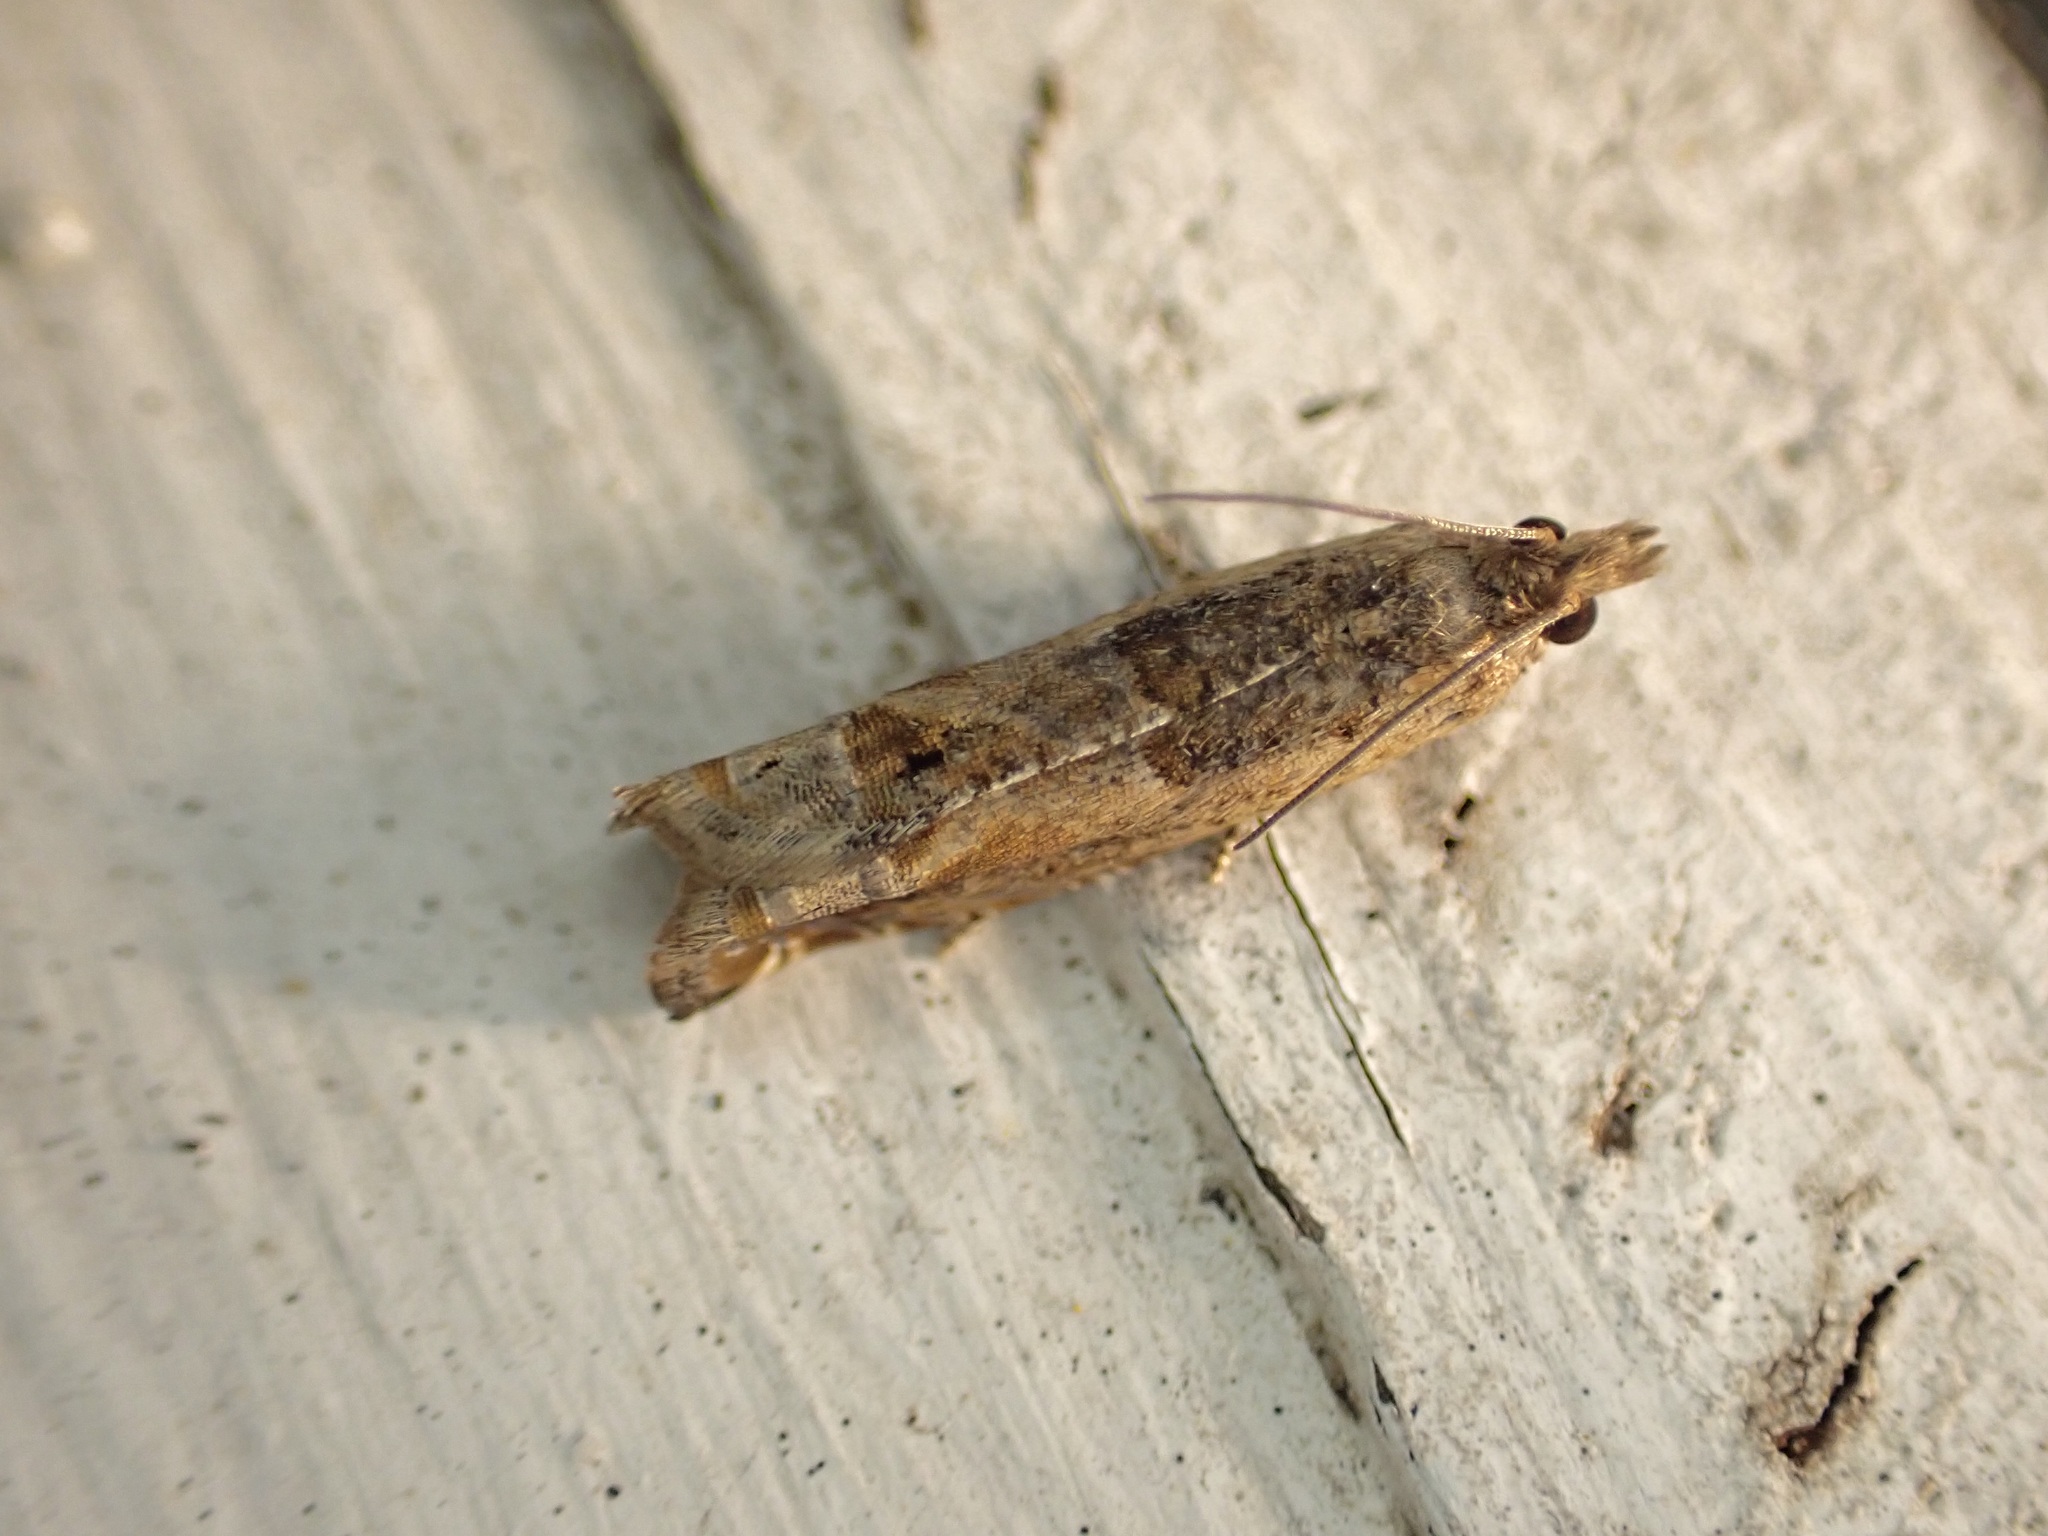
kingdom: Animalia
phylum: Arthropoda
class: Insecta
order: Lepidoptera
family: Tortricidae
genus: Crocidosema
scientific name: Crocidosema plebejana
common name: Southern bell
